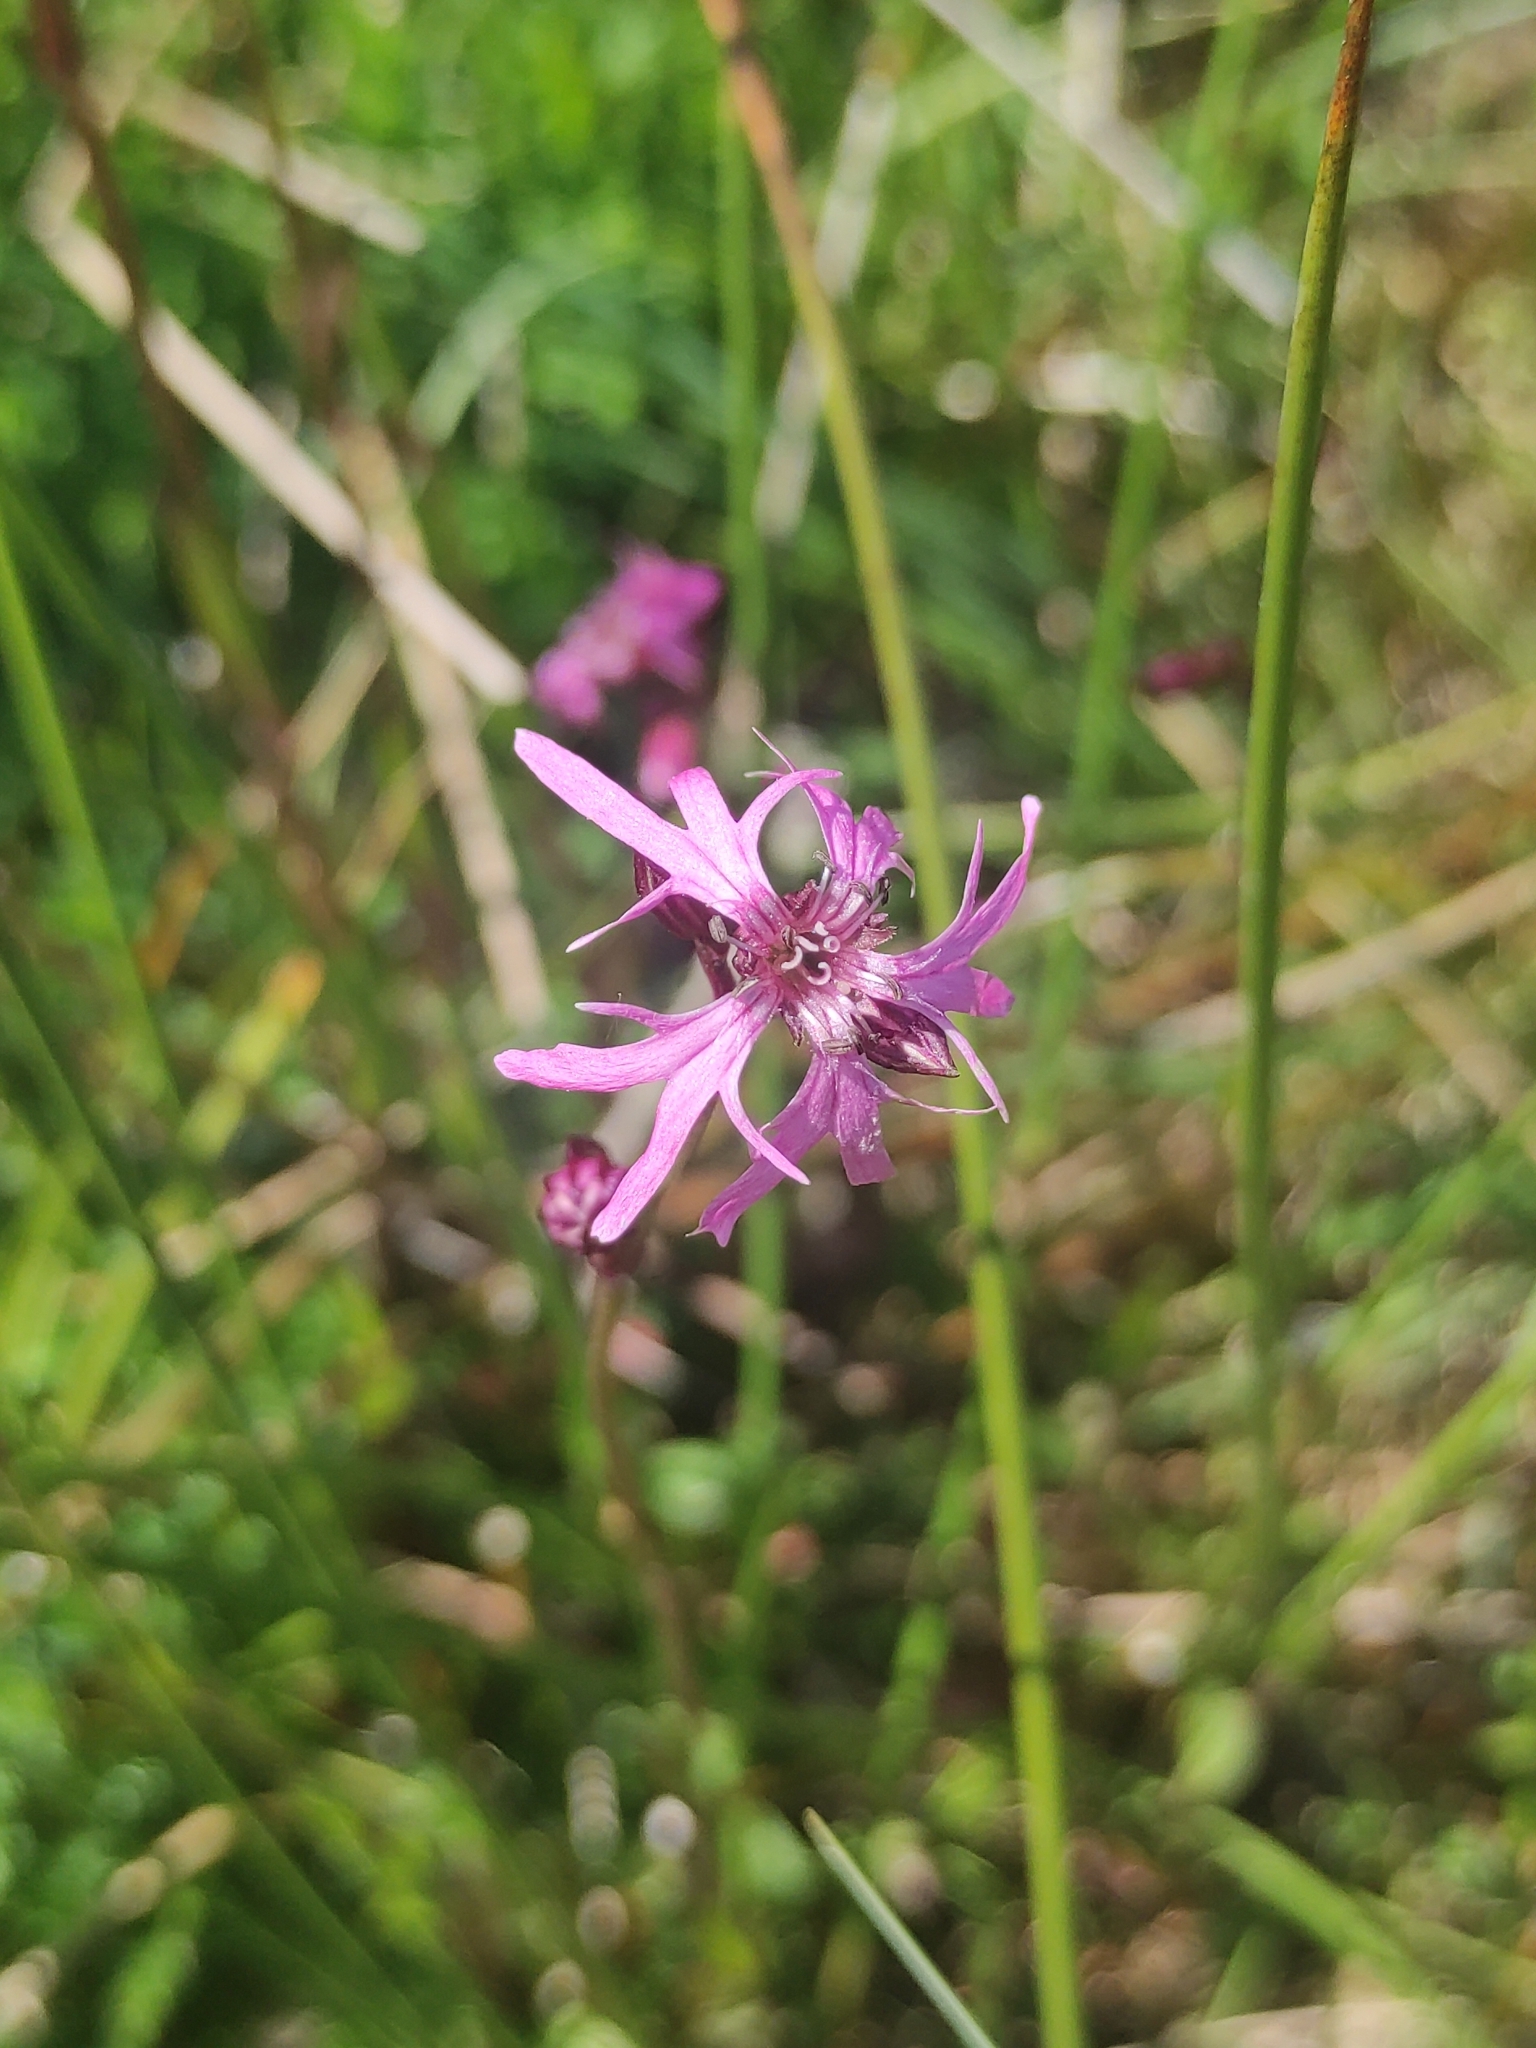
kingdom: Plantae
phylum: Tracheophyta
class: Magnoliopsida
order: Caryophyllales
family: Caryophyllaceae
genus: Silene
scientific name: Silene flos-cuculi
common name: Ragged-robin
